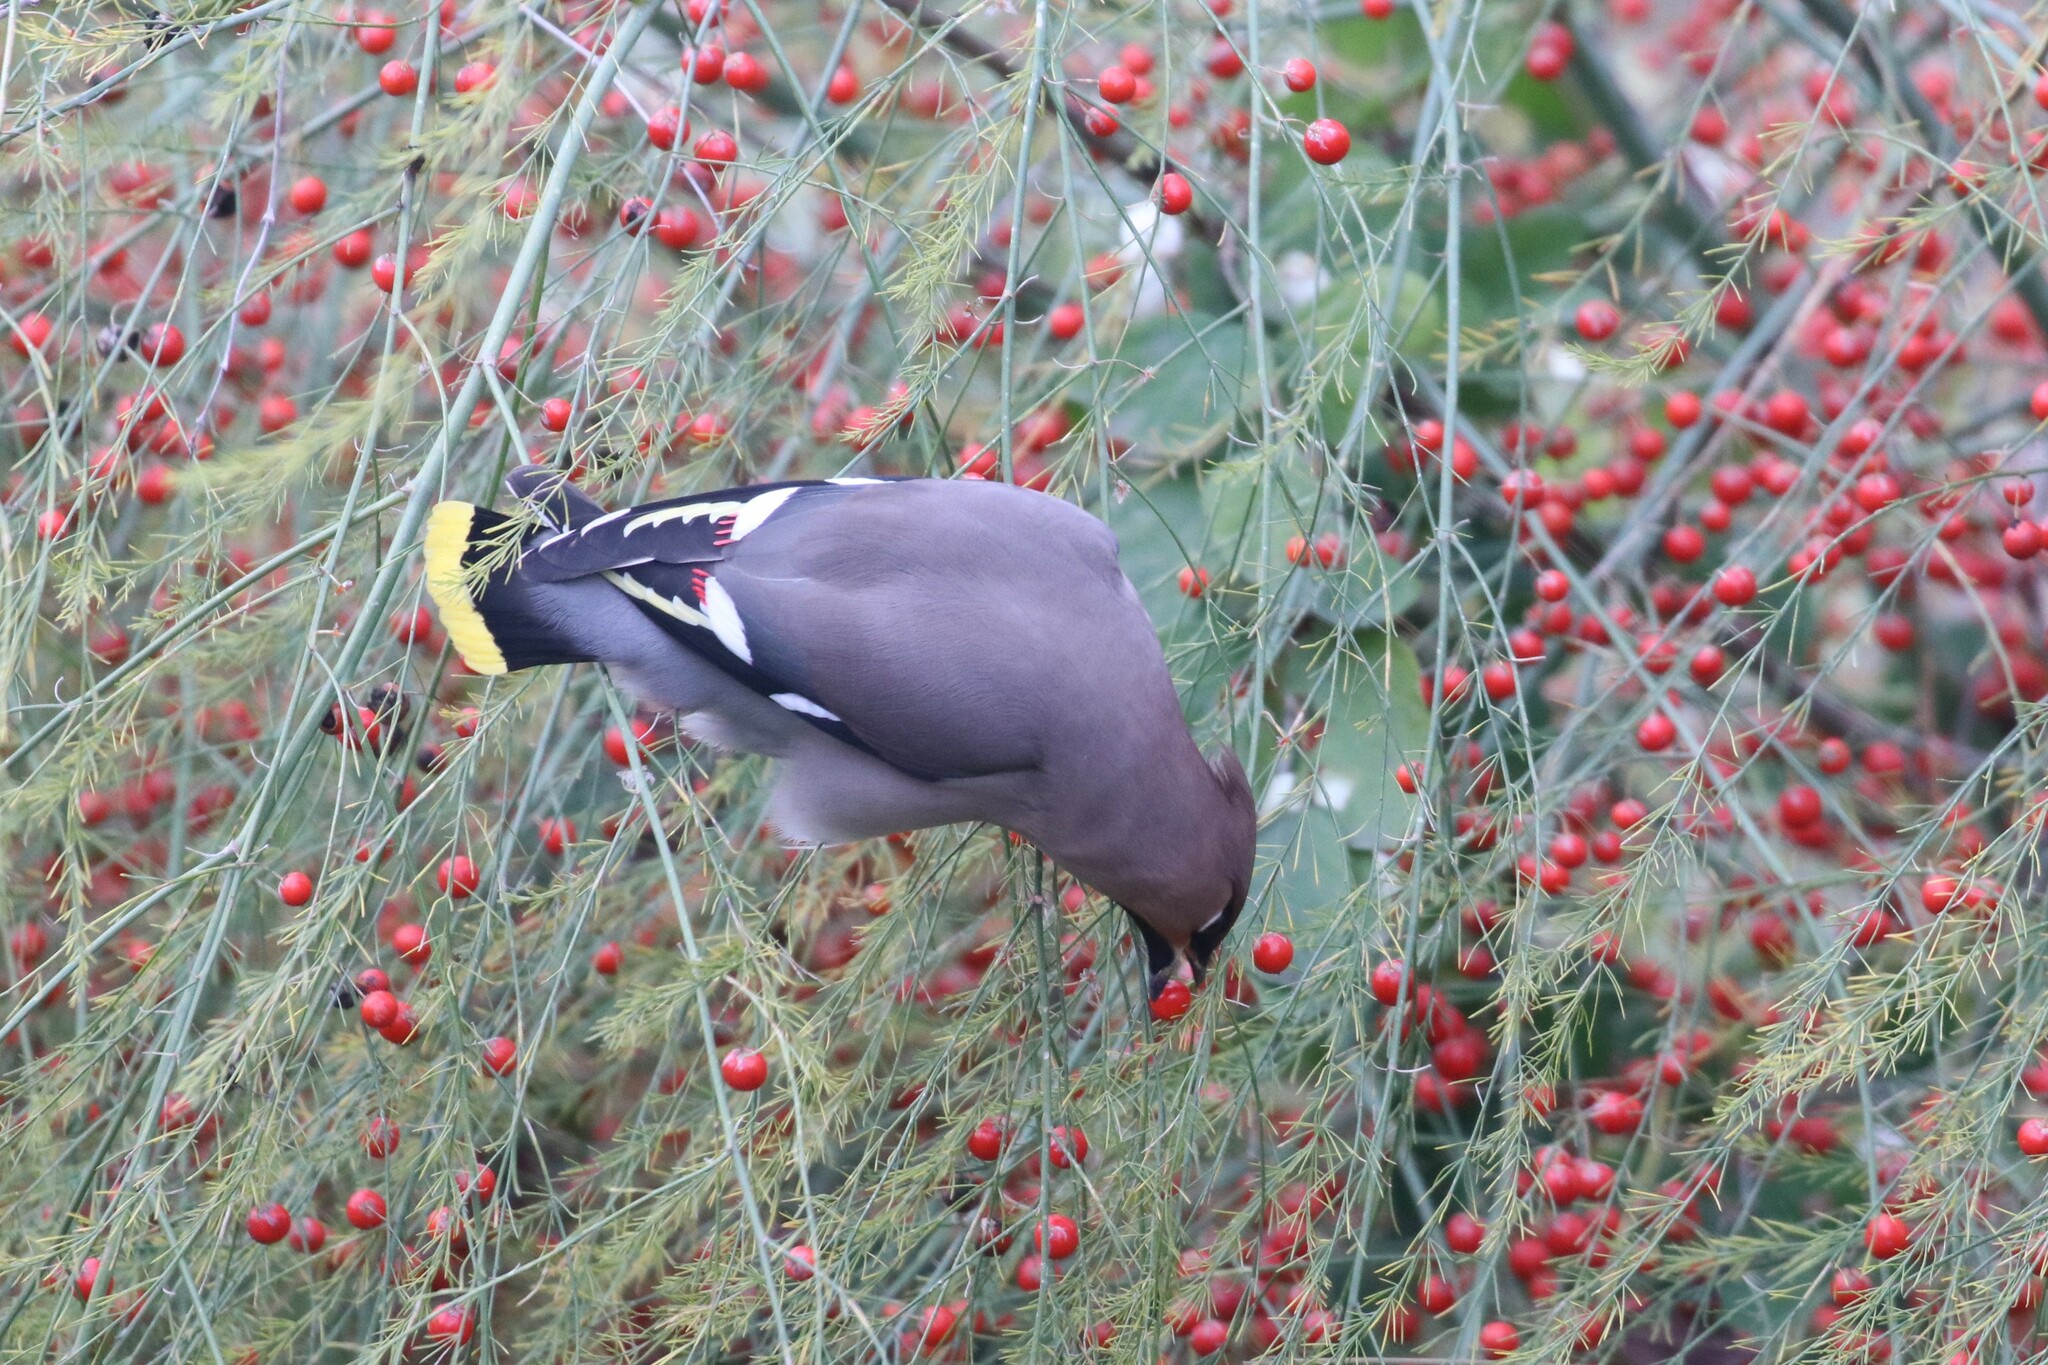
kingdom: Animalia
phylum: Chordata
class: Aves
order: Passeriformes
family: Bombycillidae
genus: Bombycilla
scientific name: Bombycilla garrulus
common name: Bohemian waxwing
